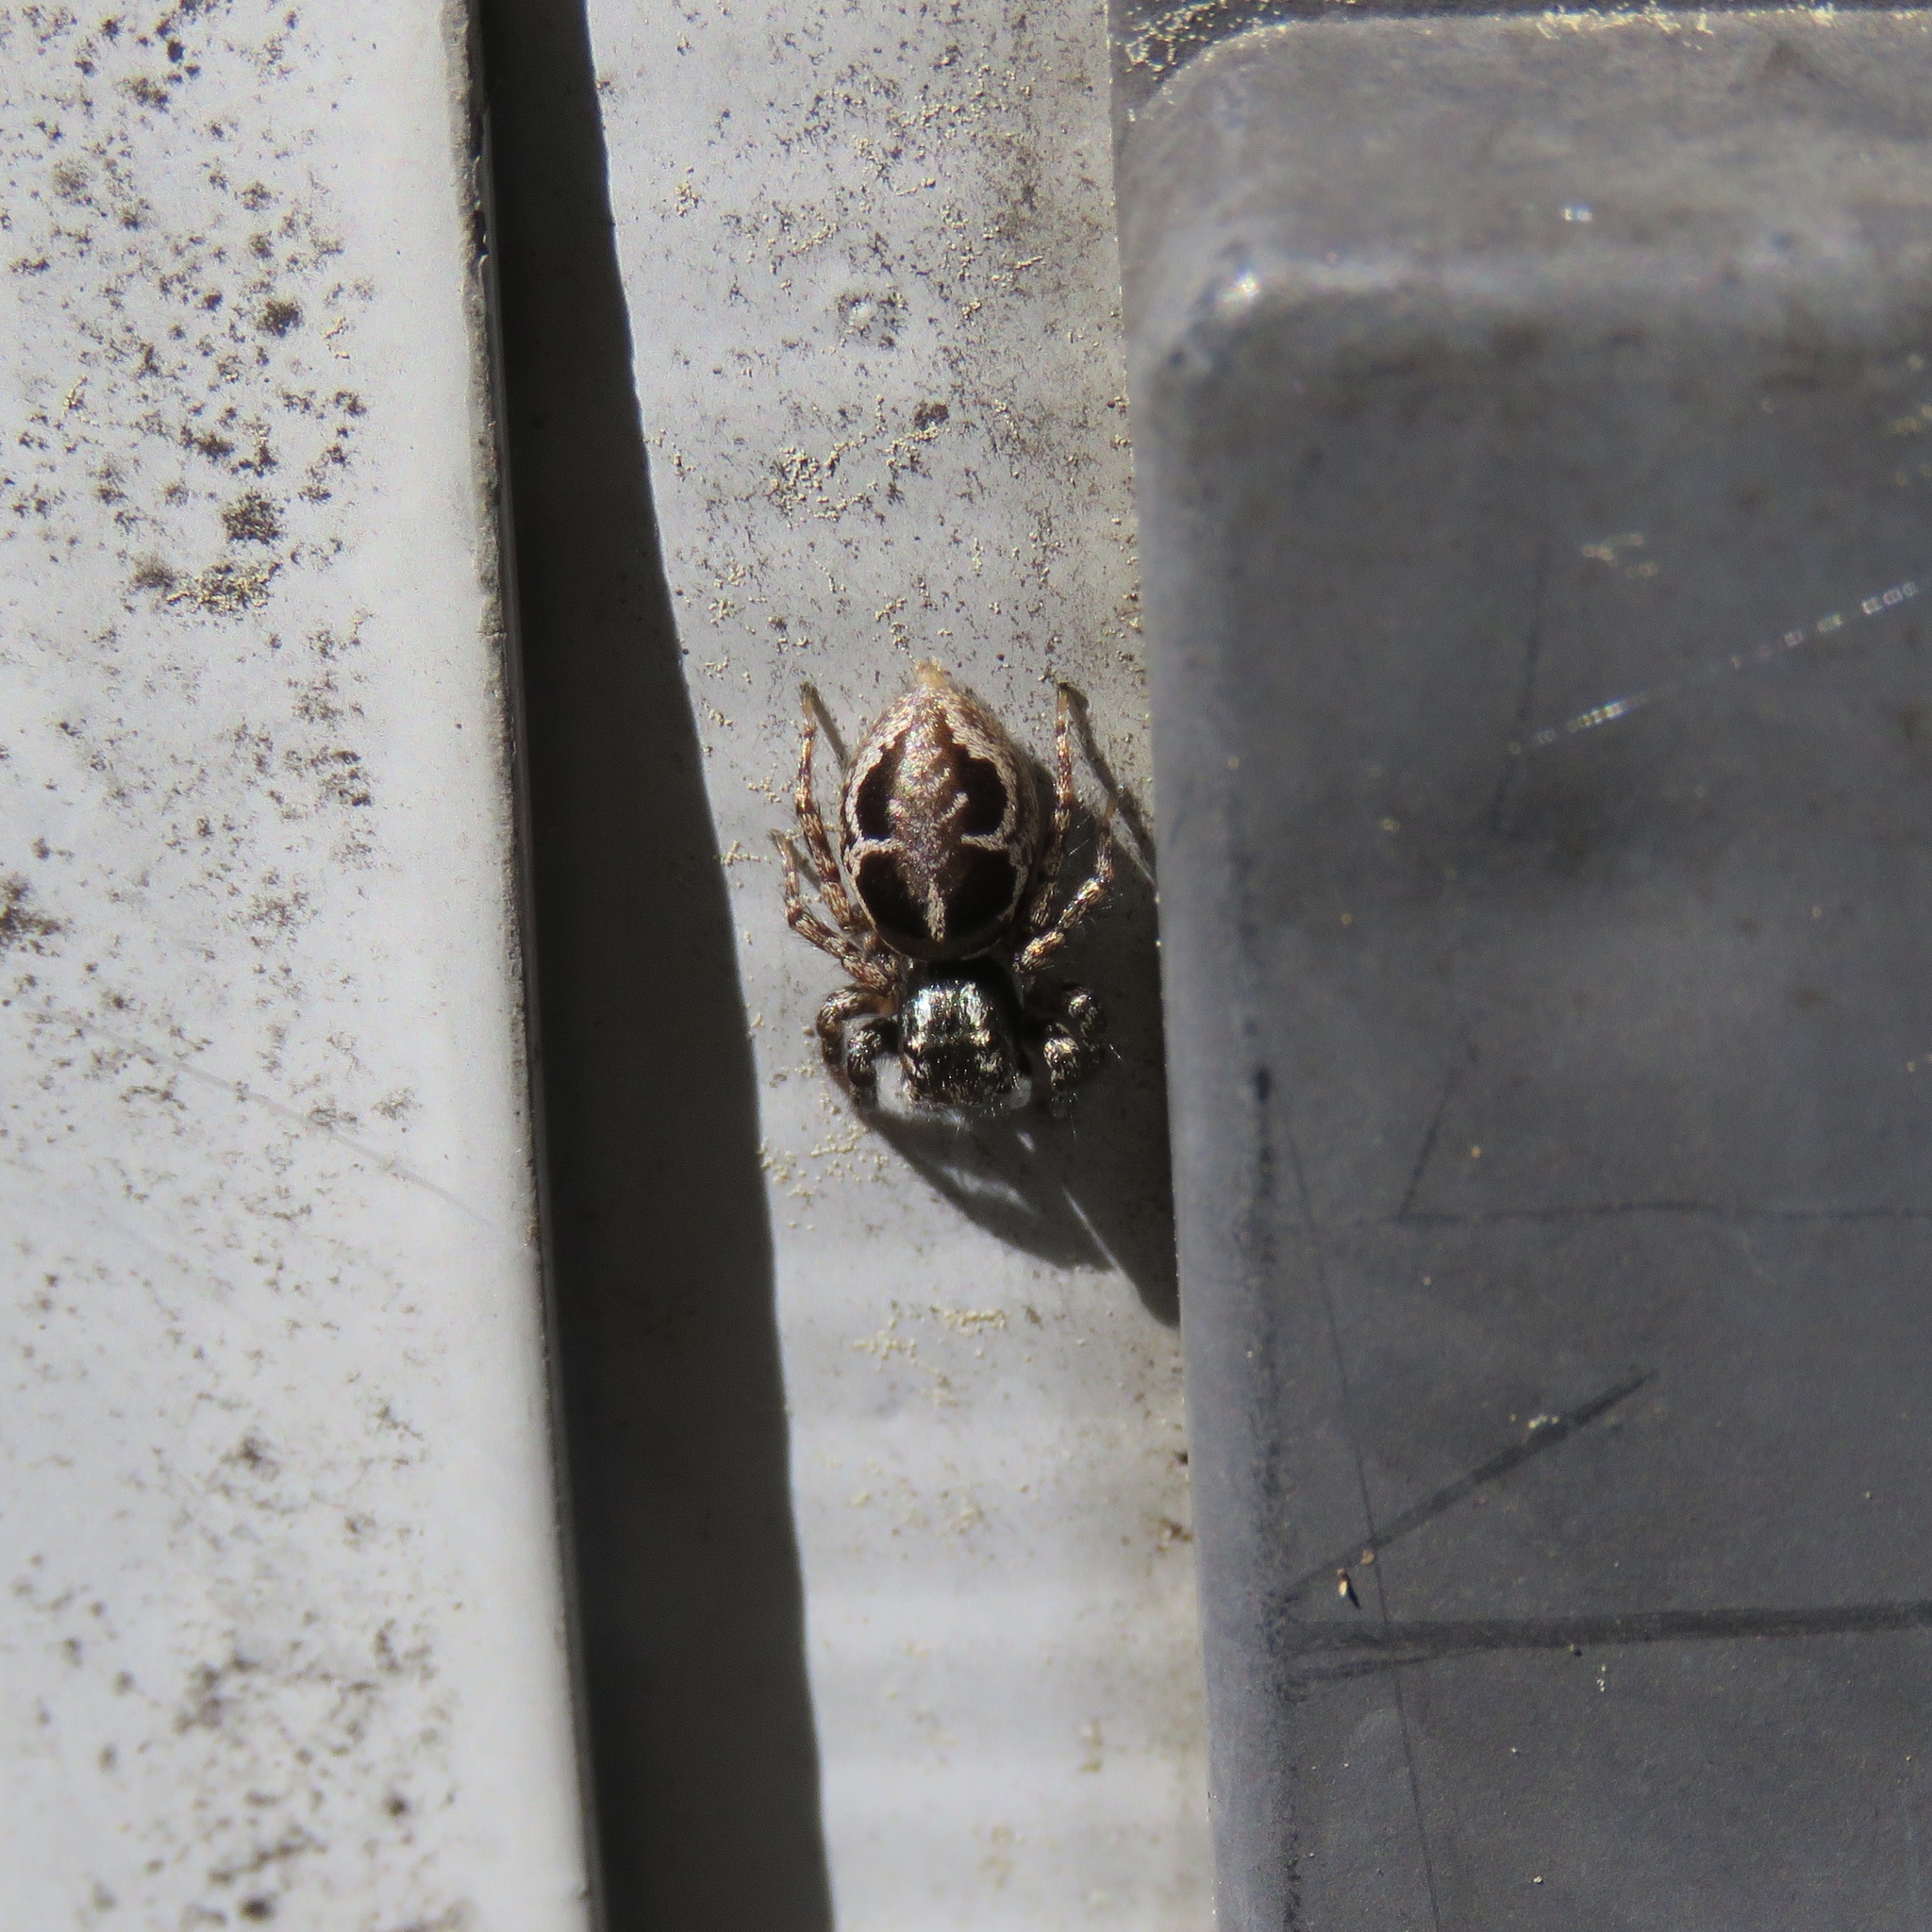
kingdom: Animalia
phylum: Arthropoda
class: Arachnida
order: Araneae
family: Salticidae
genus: Anasaitis
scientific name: Anasaitis canosa
